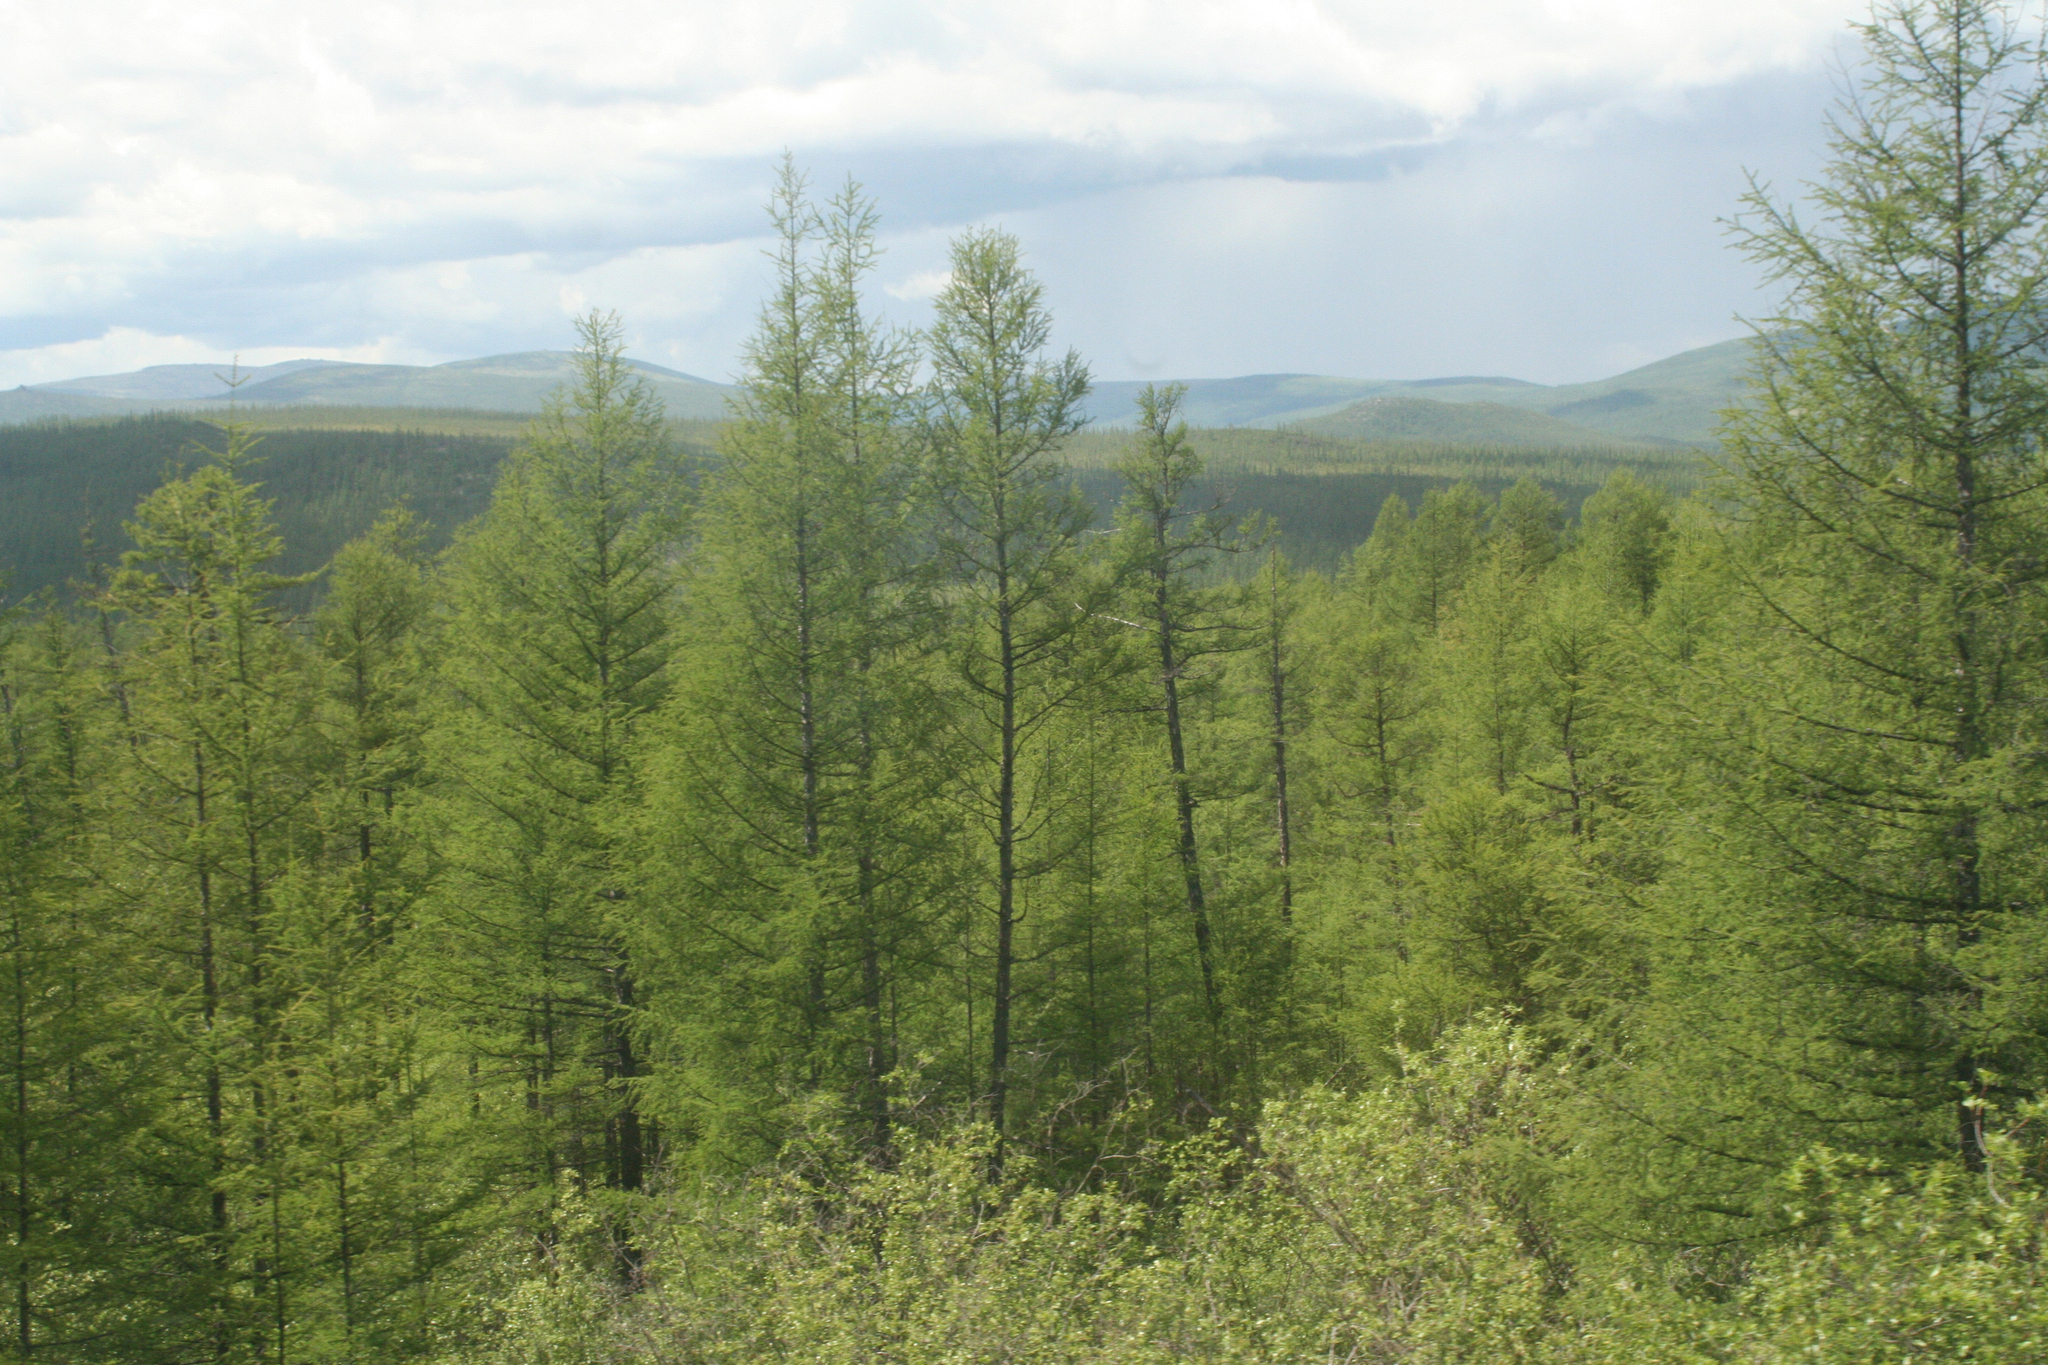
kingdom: Plantae
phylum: Tracheophyta
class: Pinopsida
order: Pinales
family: Pinaceae
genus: Larix
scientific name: Larix gmelinii
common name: Dahurian larch
